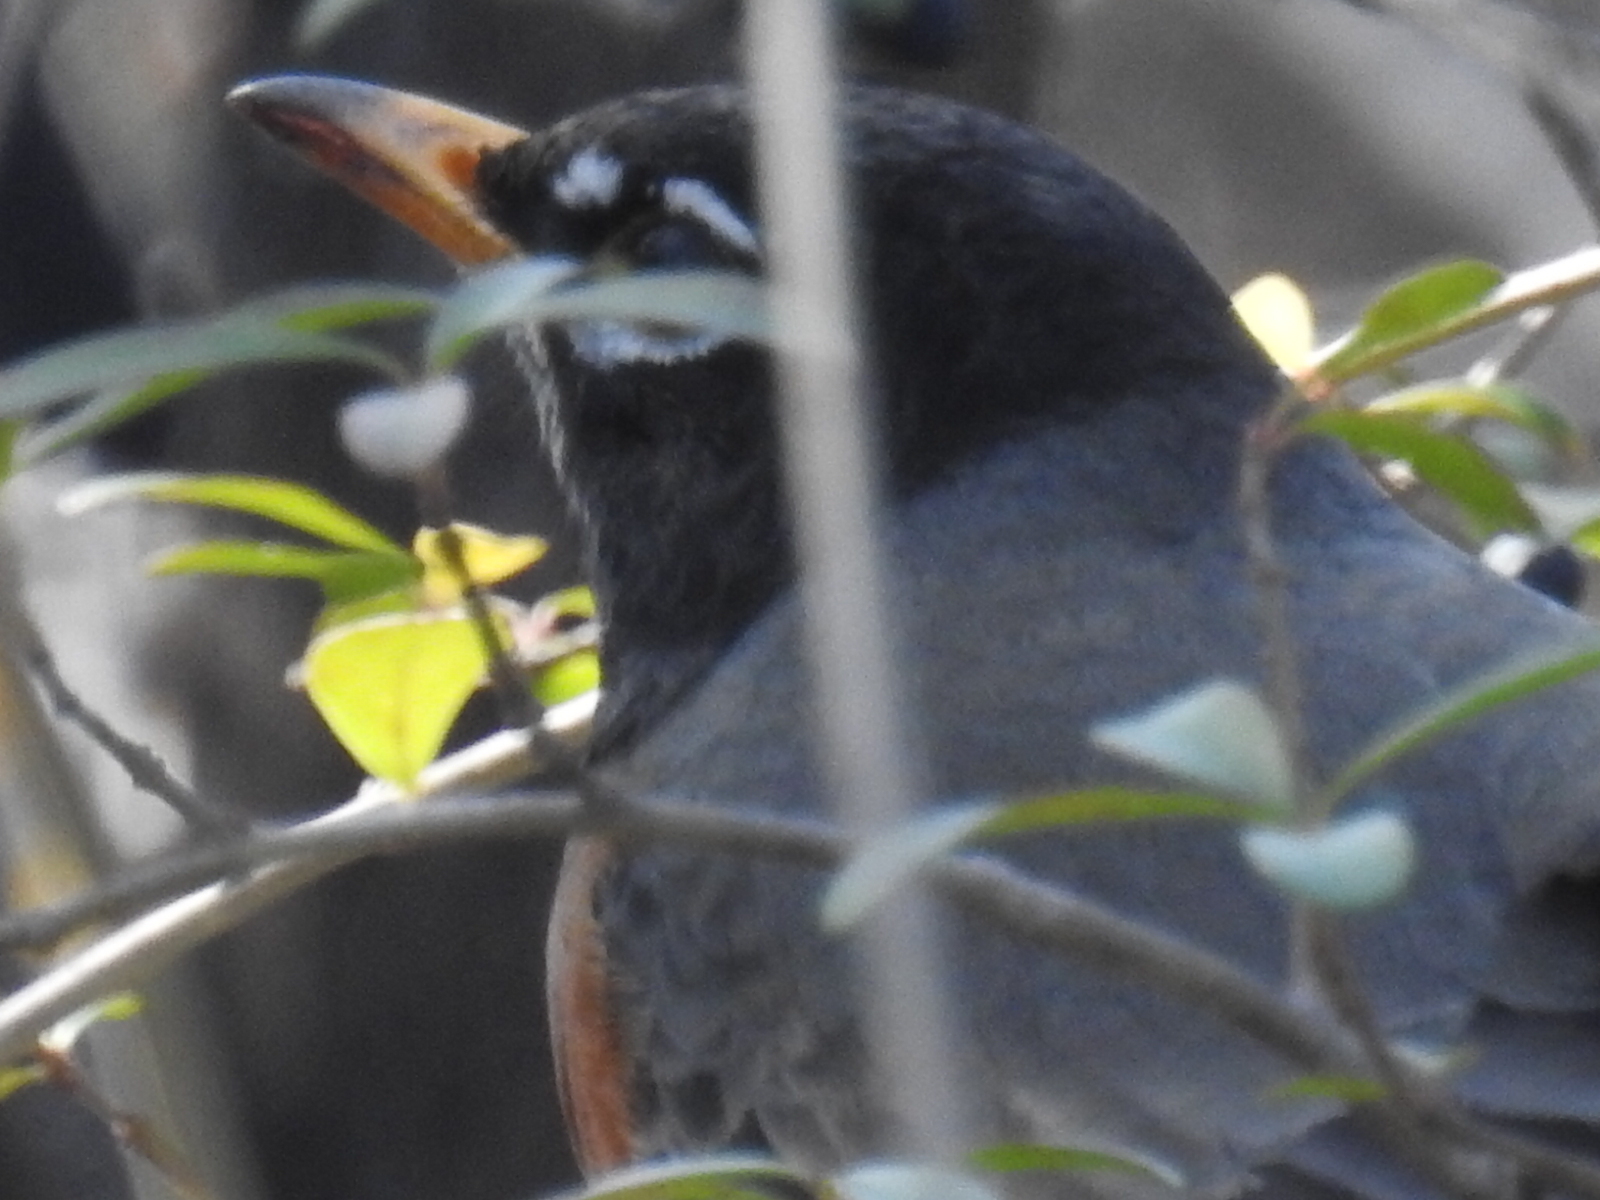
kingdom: Animalia
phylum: Chordata
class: Aves
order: Passeriformes
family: Turdidae
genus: Turdus
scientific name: Turdus migratorius
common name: American robin
